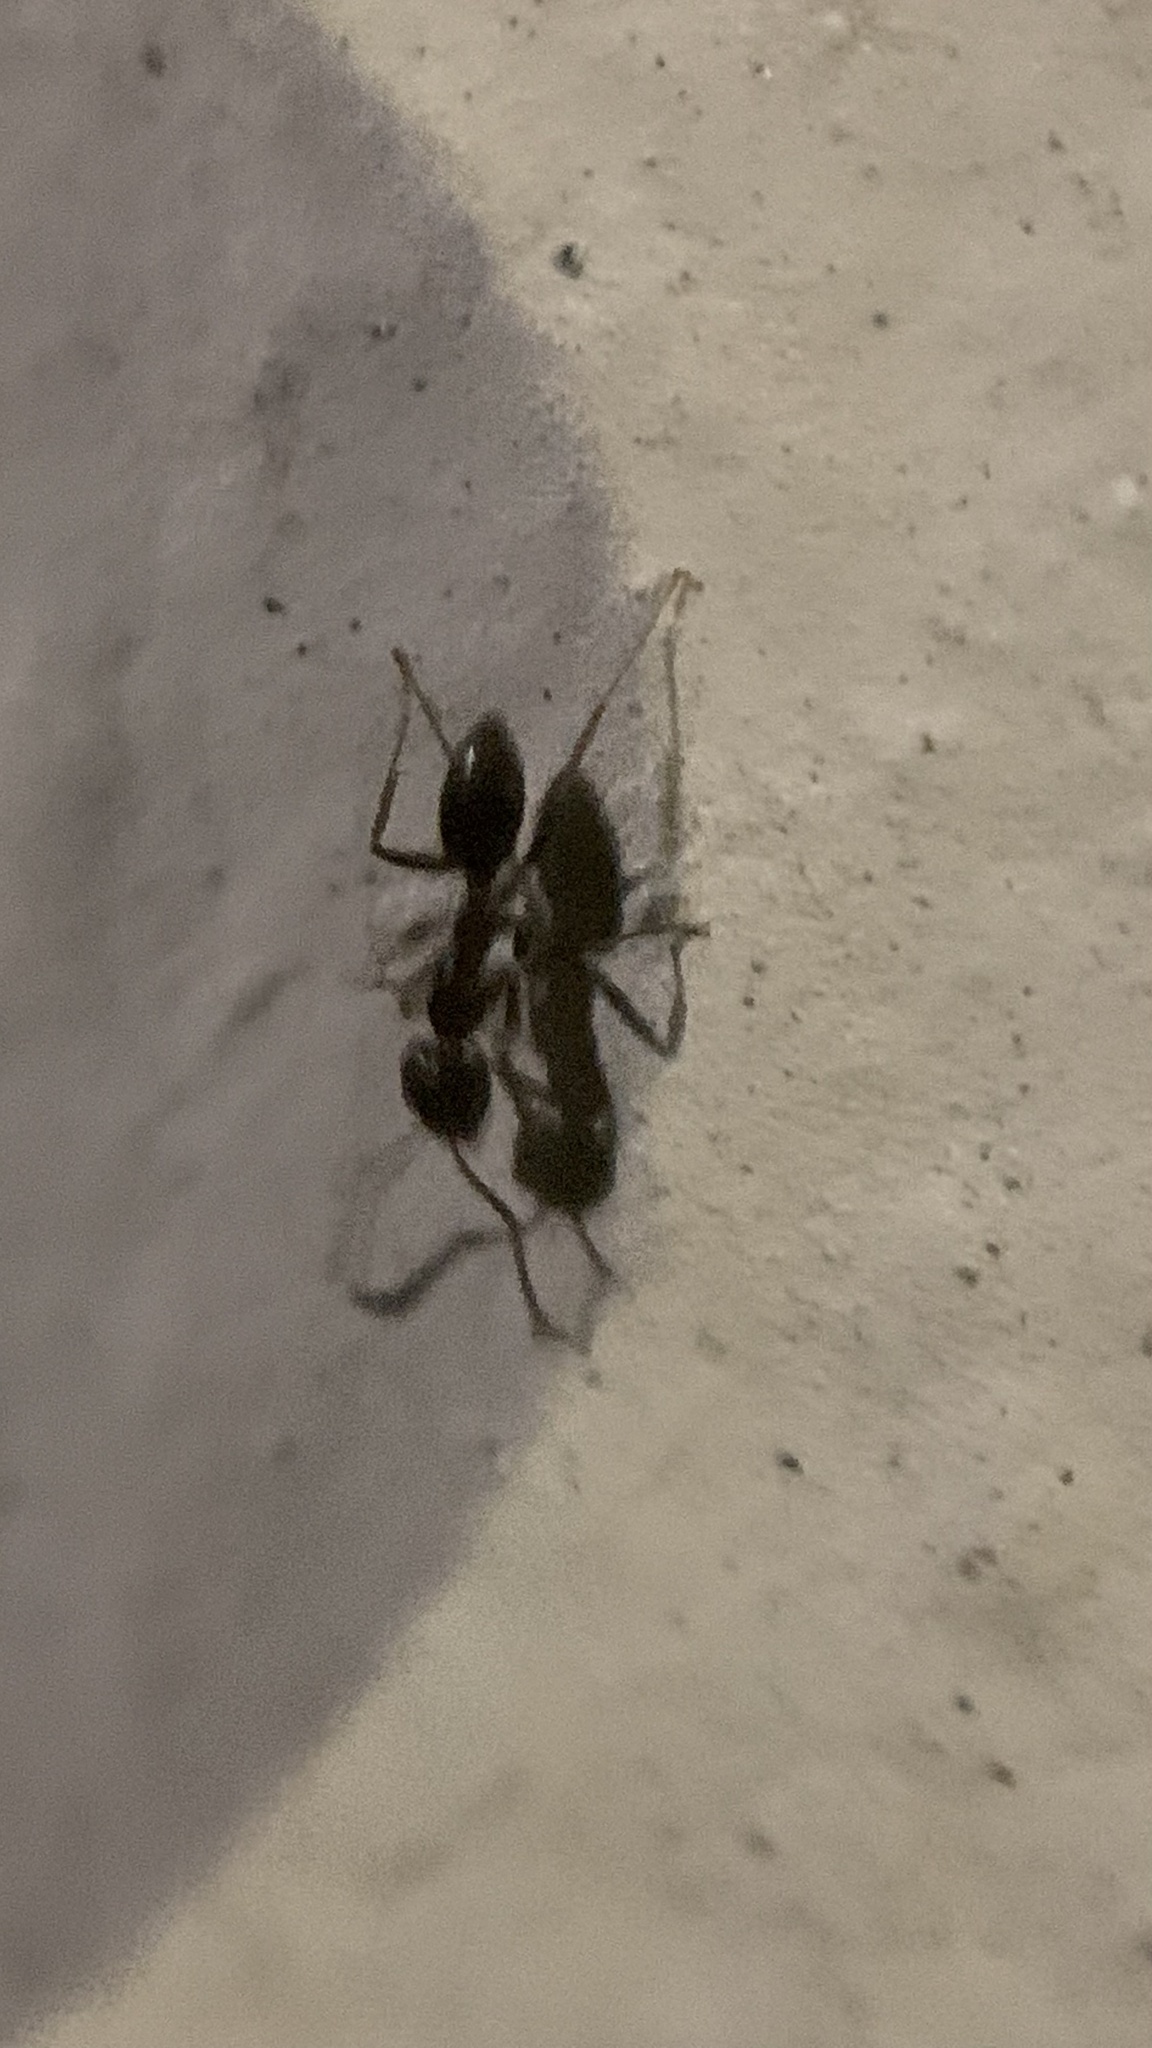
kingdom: Animalia
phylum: Arthropoda
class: Insecta
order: Hymenoptera
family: Formicidae
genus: Linepithema
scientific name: Linepithema humile
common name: Argentine ant
